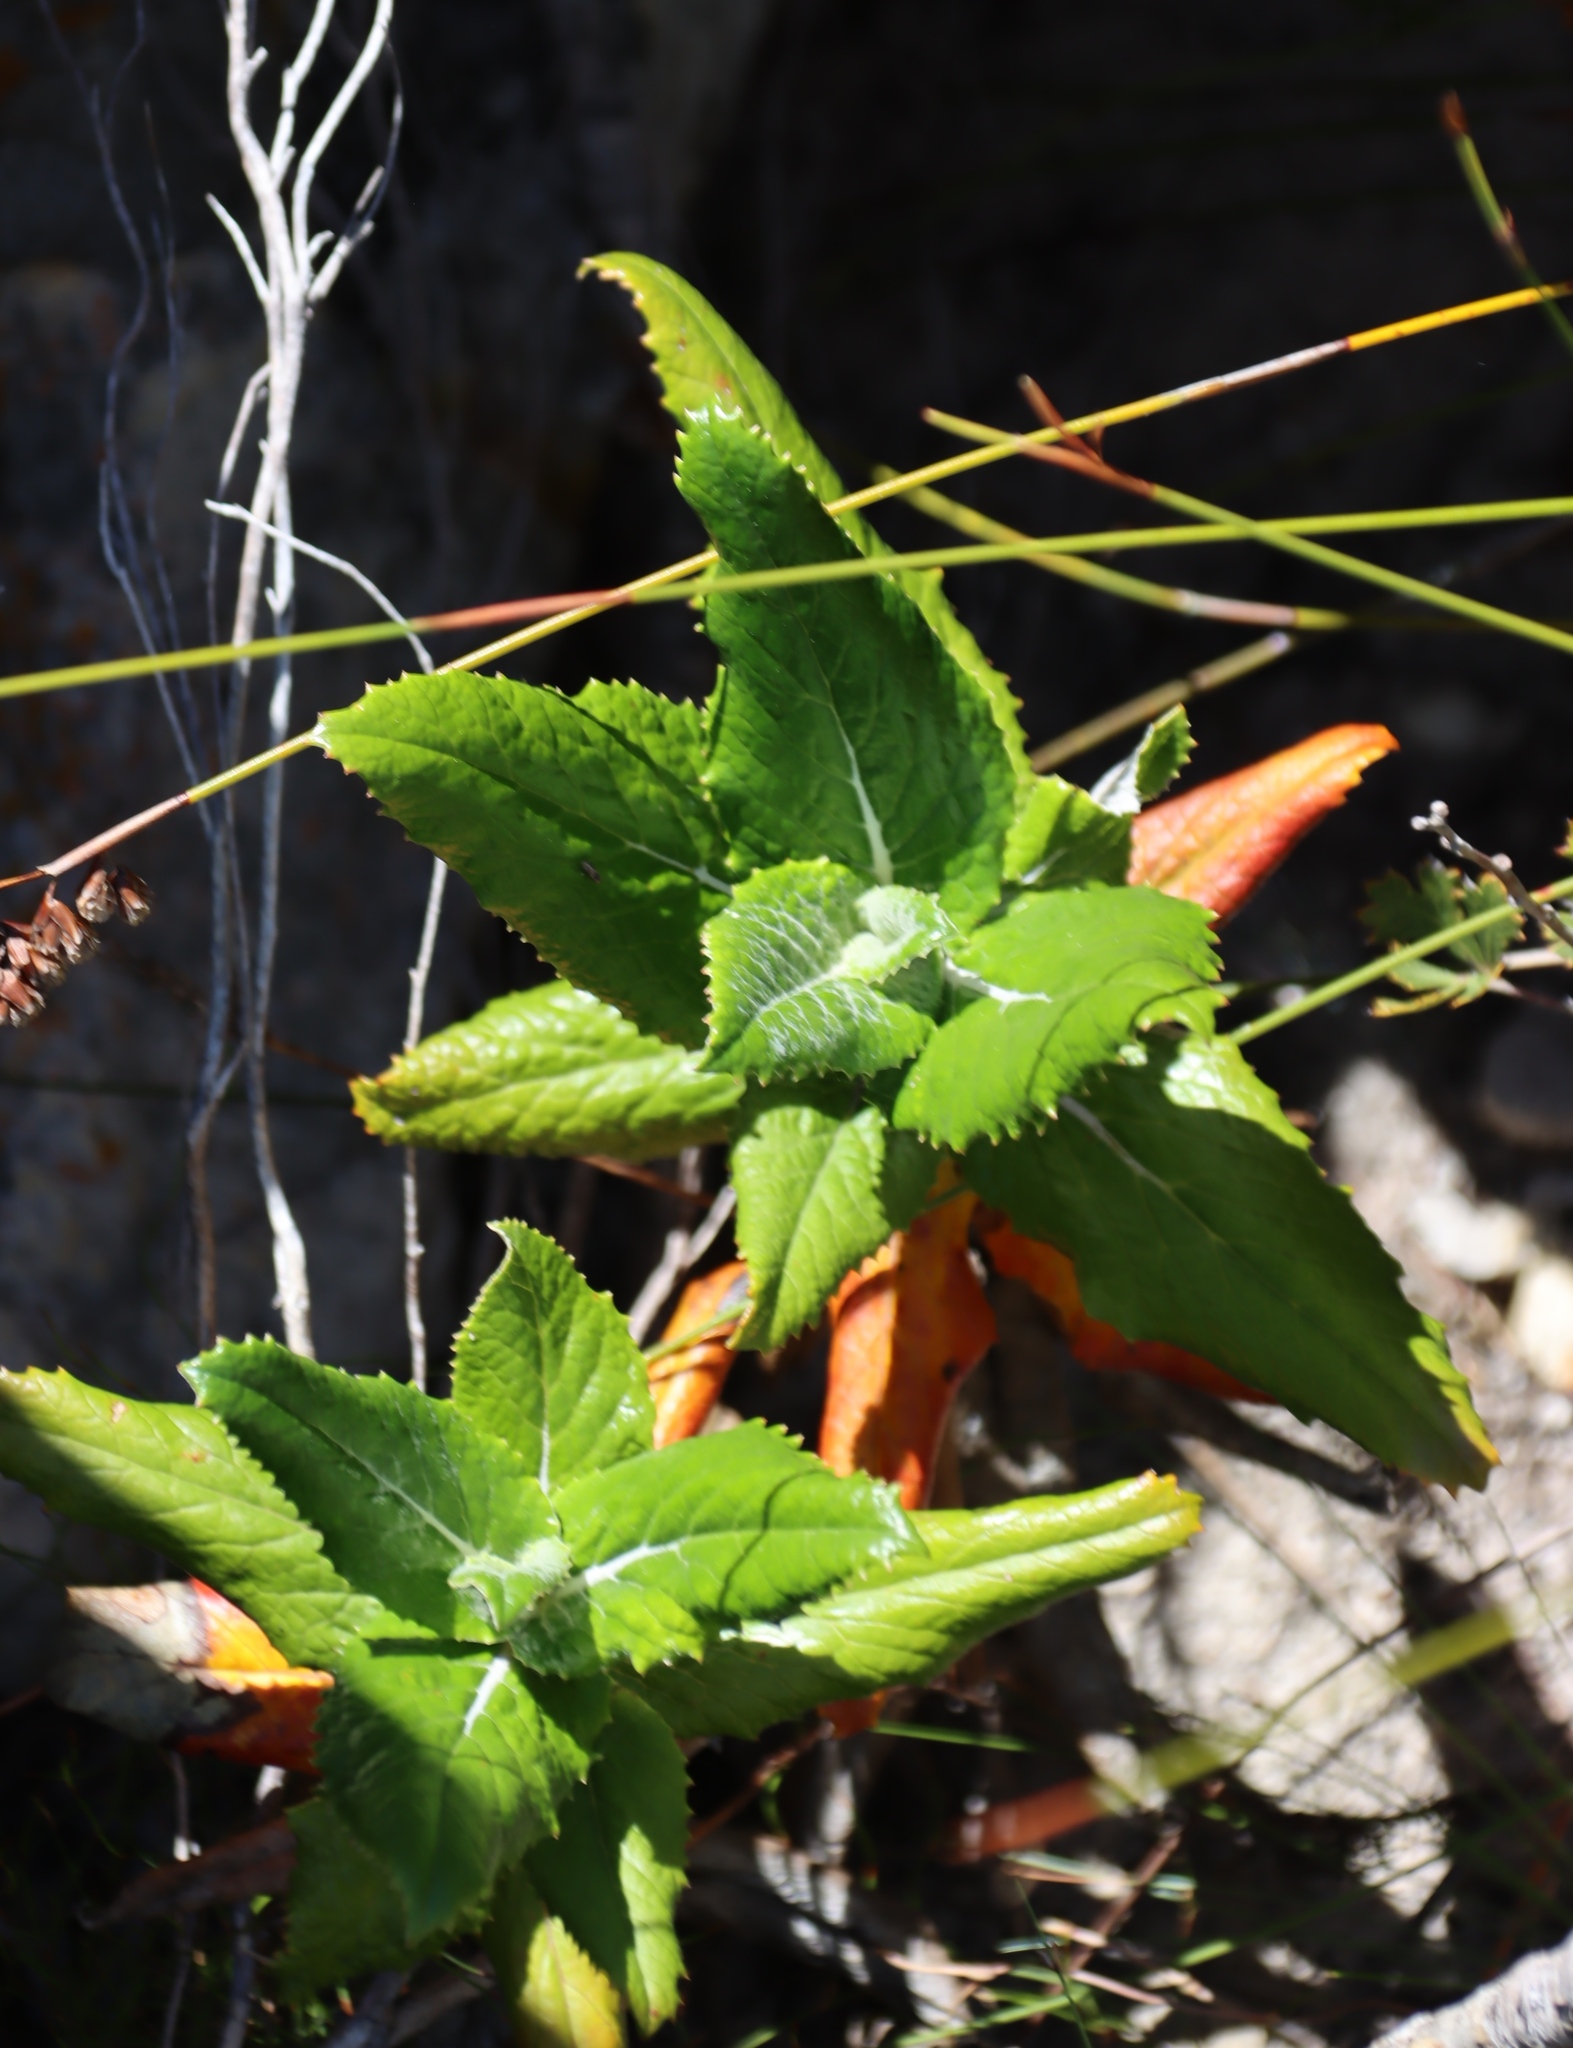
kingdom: Plantae
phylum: Tracheophyta
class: Magnoliopsida
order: Apiales
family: Apiaceae
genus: Hermas
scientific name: Hermas villosa
